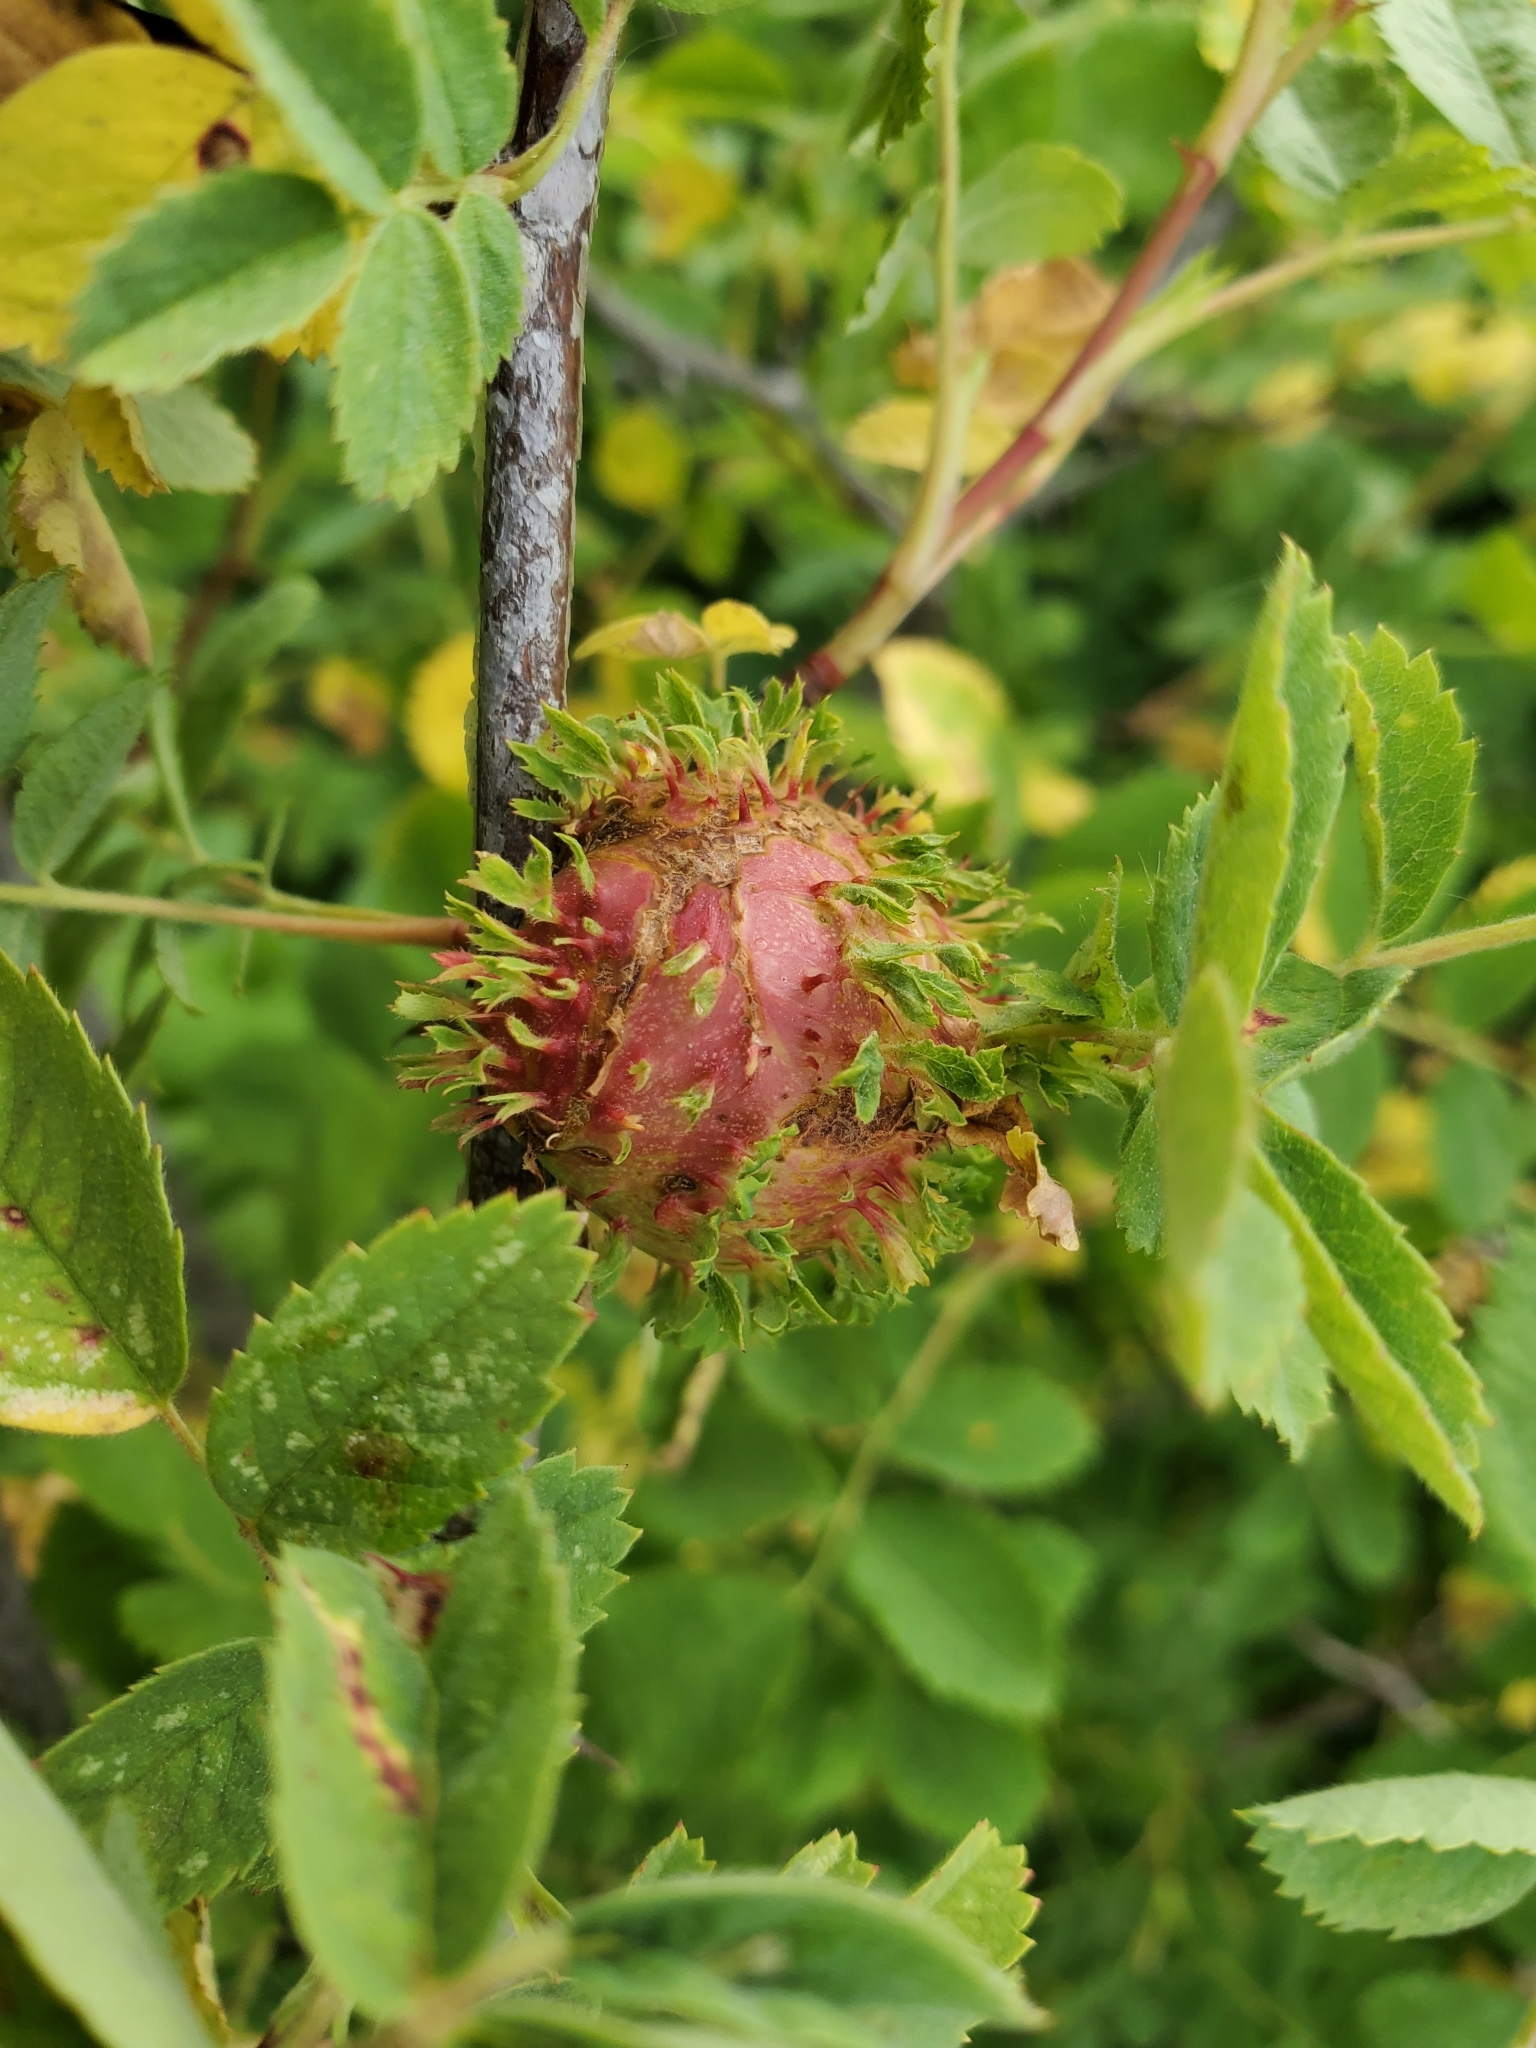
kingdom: Animalia
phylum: Arthropoda
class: Insecta
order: Hymenoptera
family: Cynipidae
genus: Diplolepis
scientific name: Diplolepis californica
